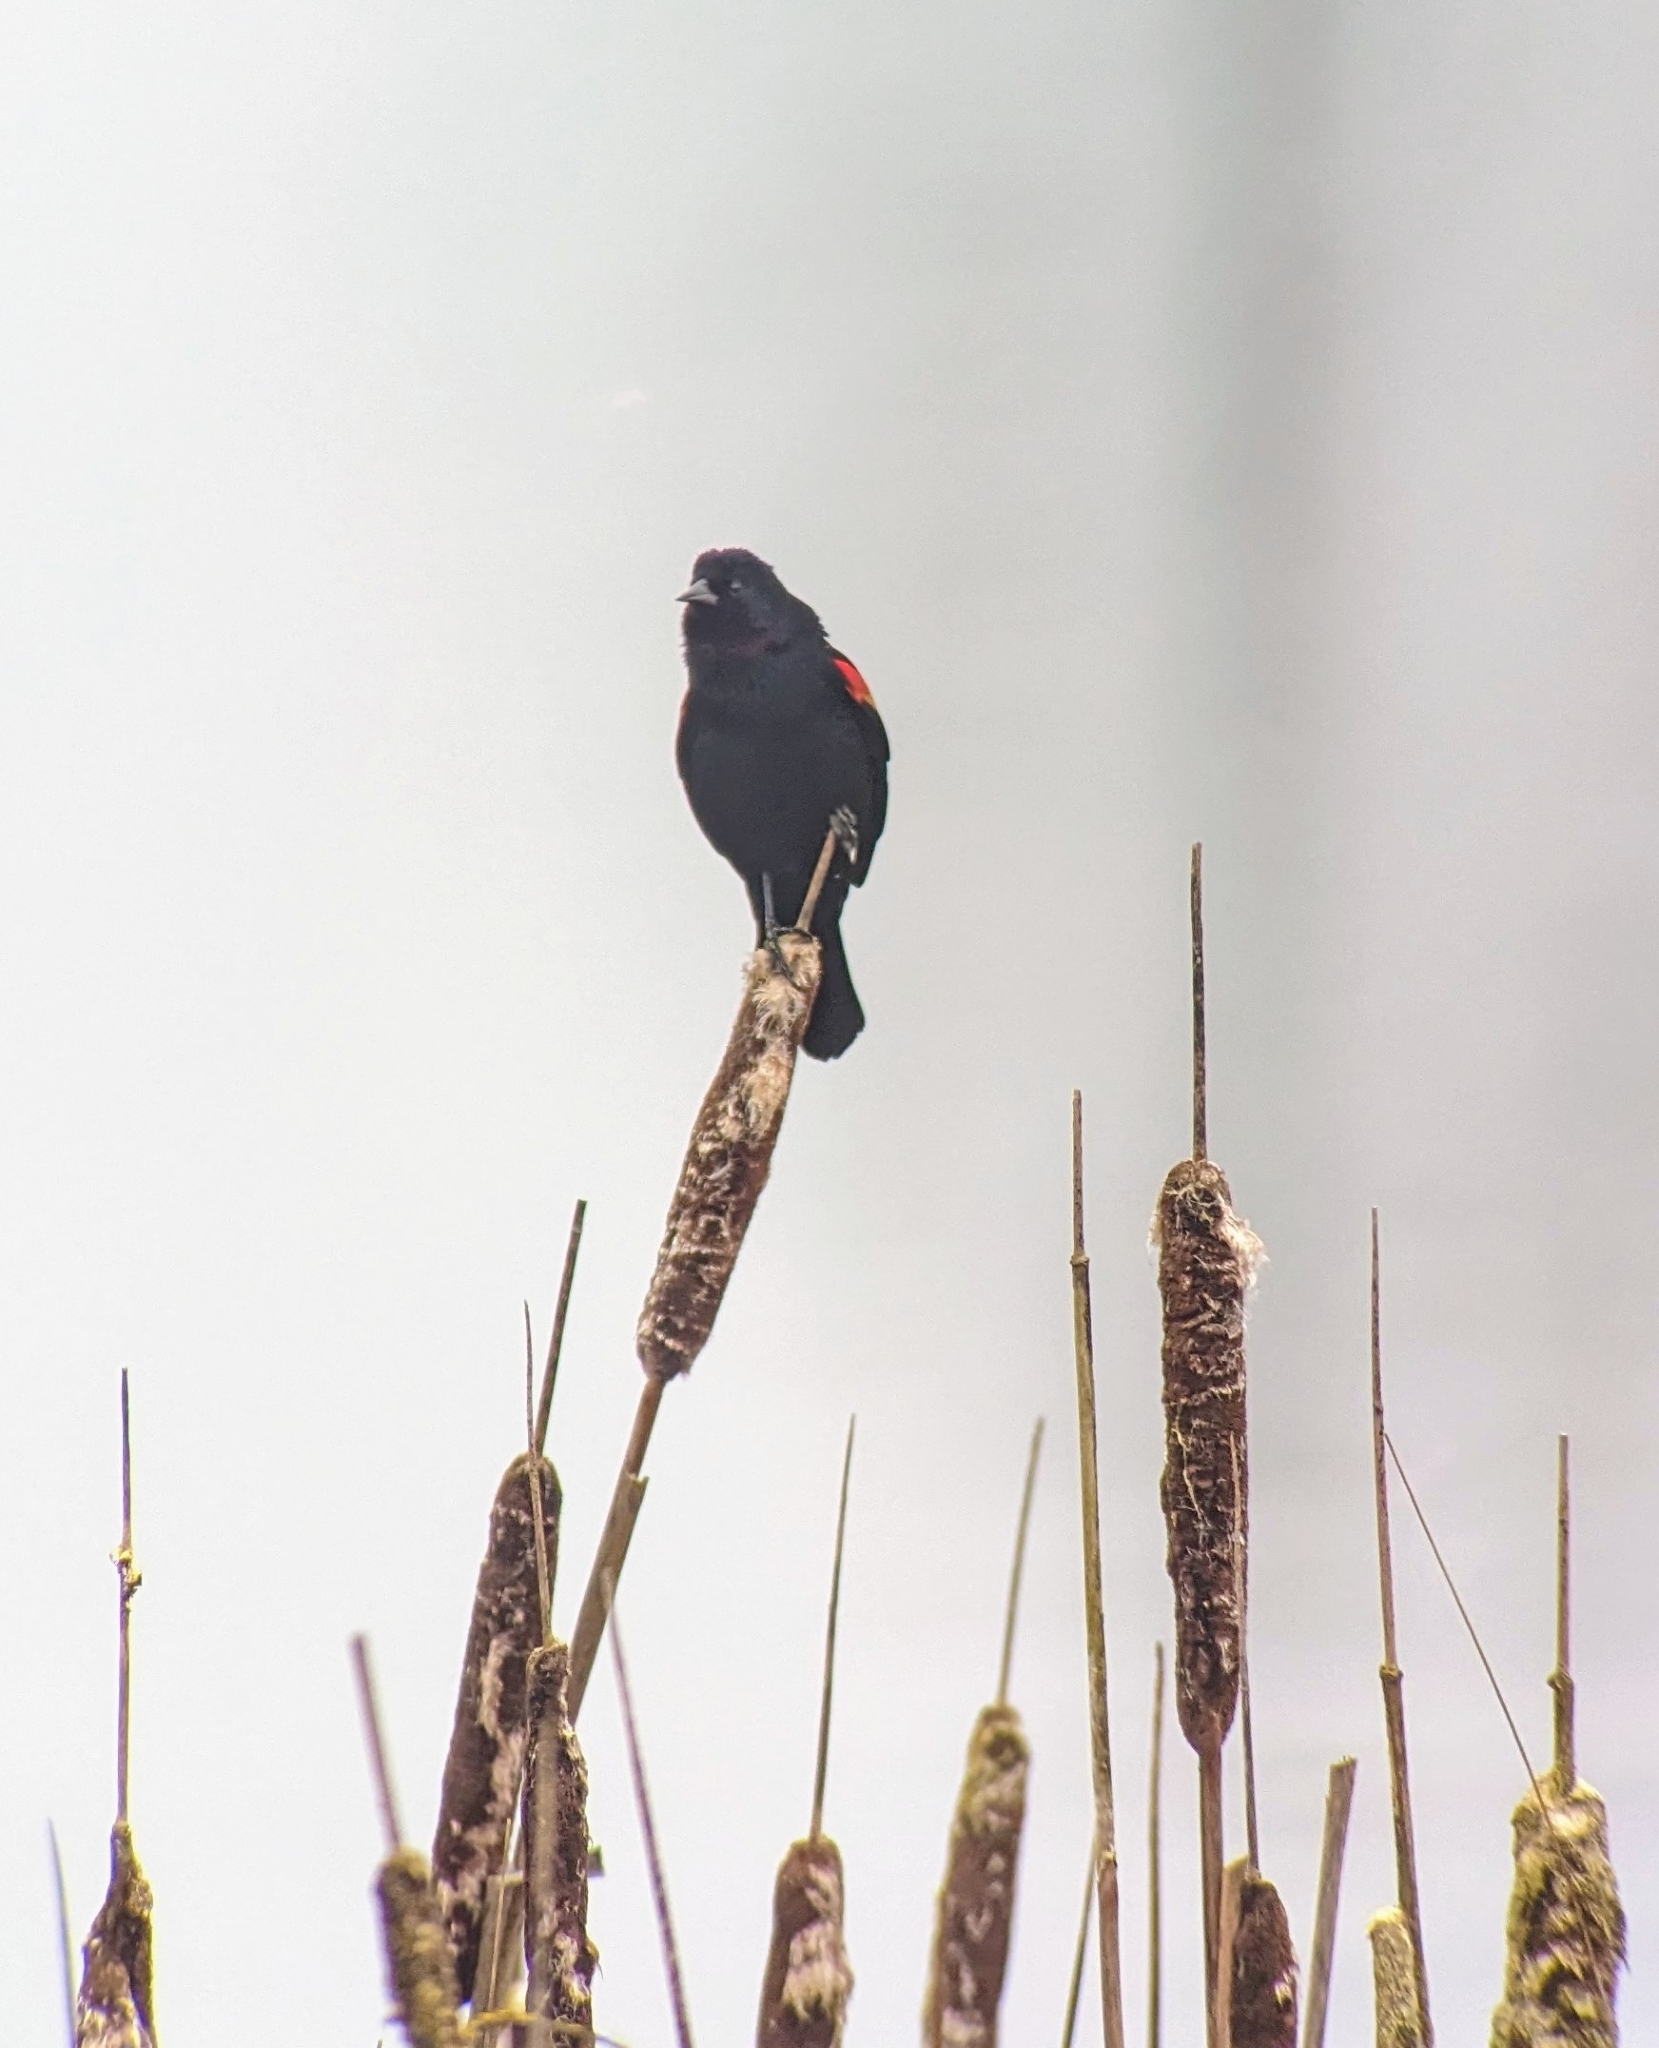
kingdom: Animalia
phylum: Chordata
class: Aves
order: Passeriformes
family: Icteridae
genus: Agelaius
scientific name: Agelaius phoeniceus
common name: Red-winged blackbird
